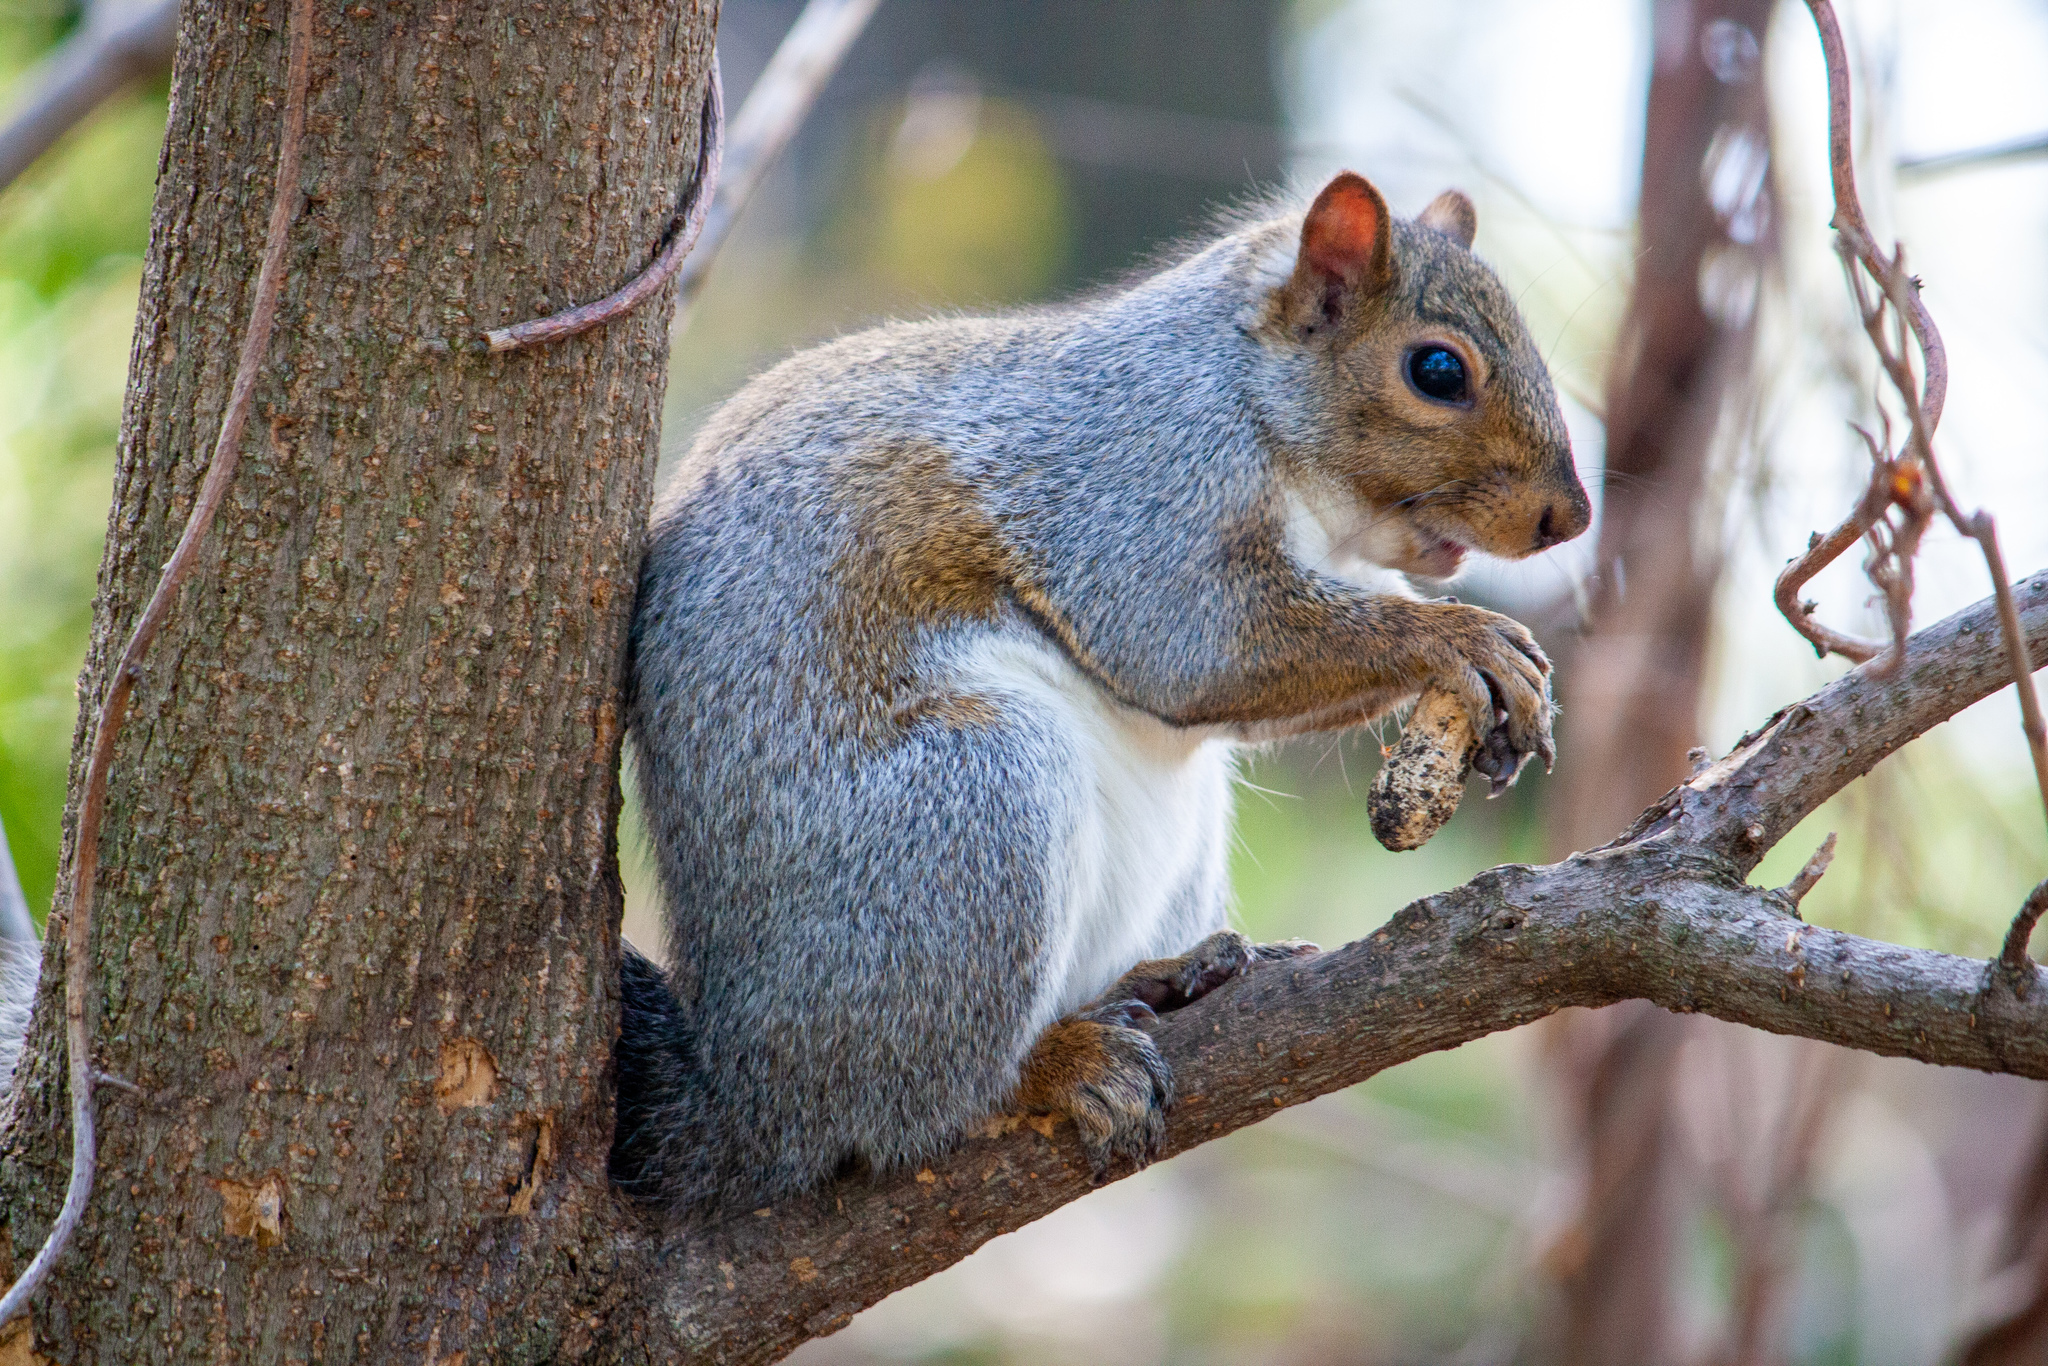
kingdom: Animalia
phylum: Chordata
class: Mammalia
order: Rodentia
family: Sciuridae
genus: Sciurus
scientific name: Sciurus carolinensis
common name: Eastern gray squirrel
